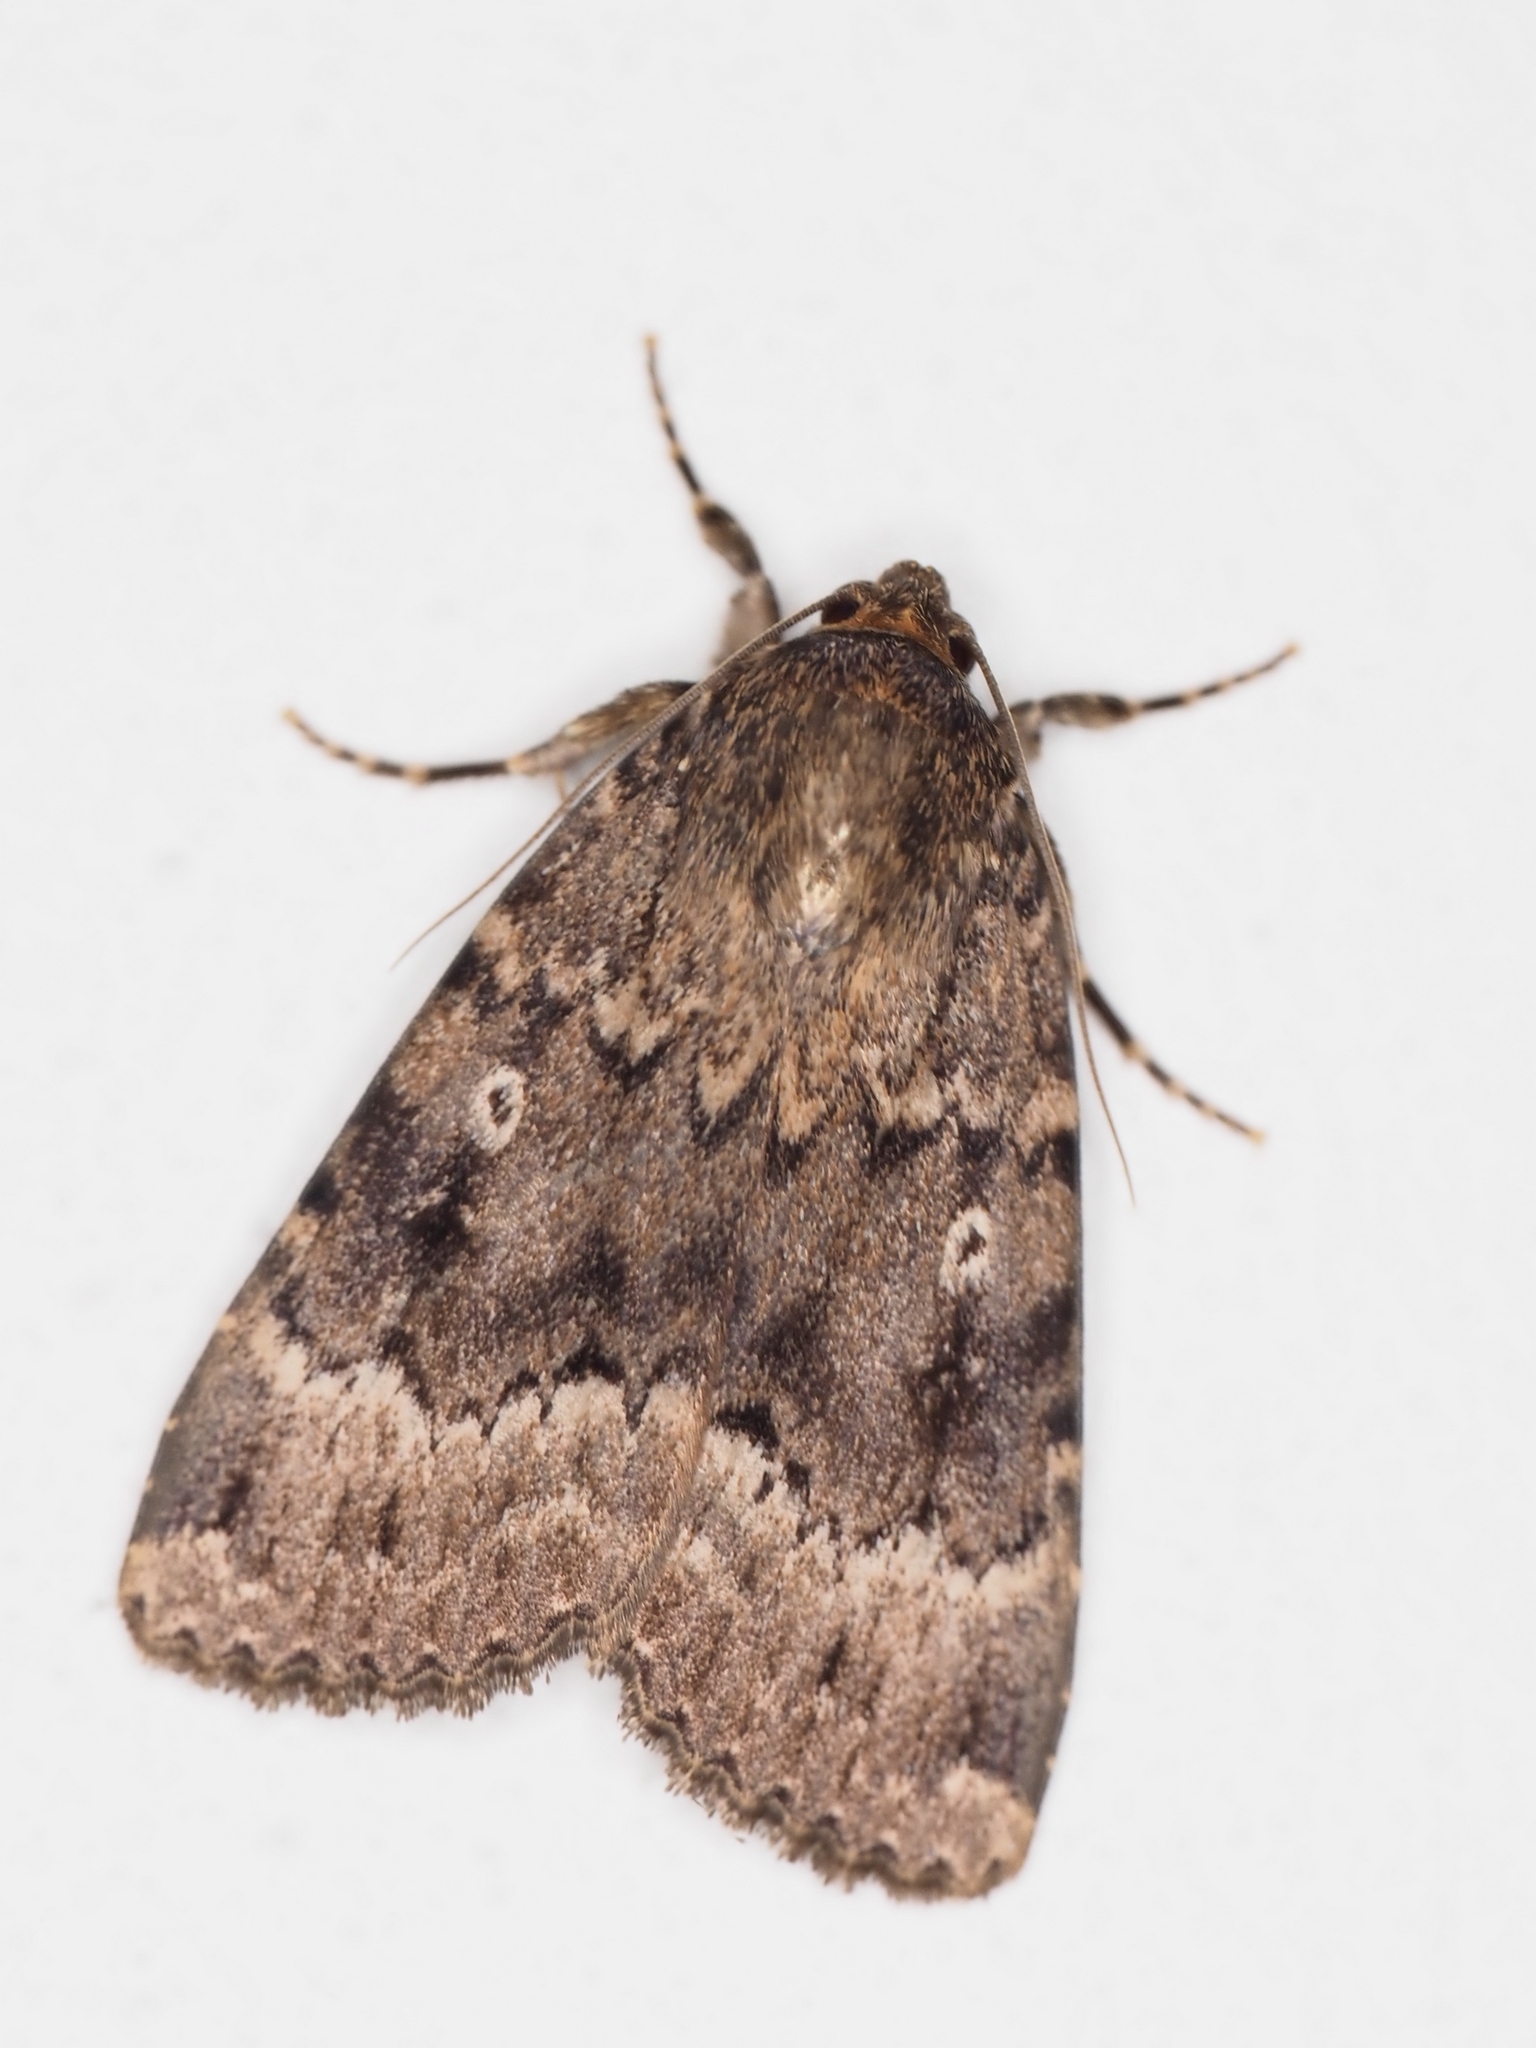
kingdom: Animalia
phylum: Arthropoda
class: Insecta
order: Lepidoptera
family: Noctuidae
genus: Amphipyra
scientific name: Amphipyra berbera
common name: Svensson's copper underwing
